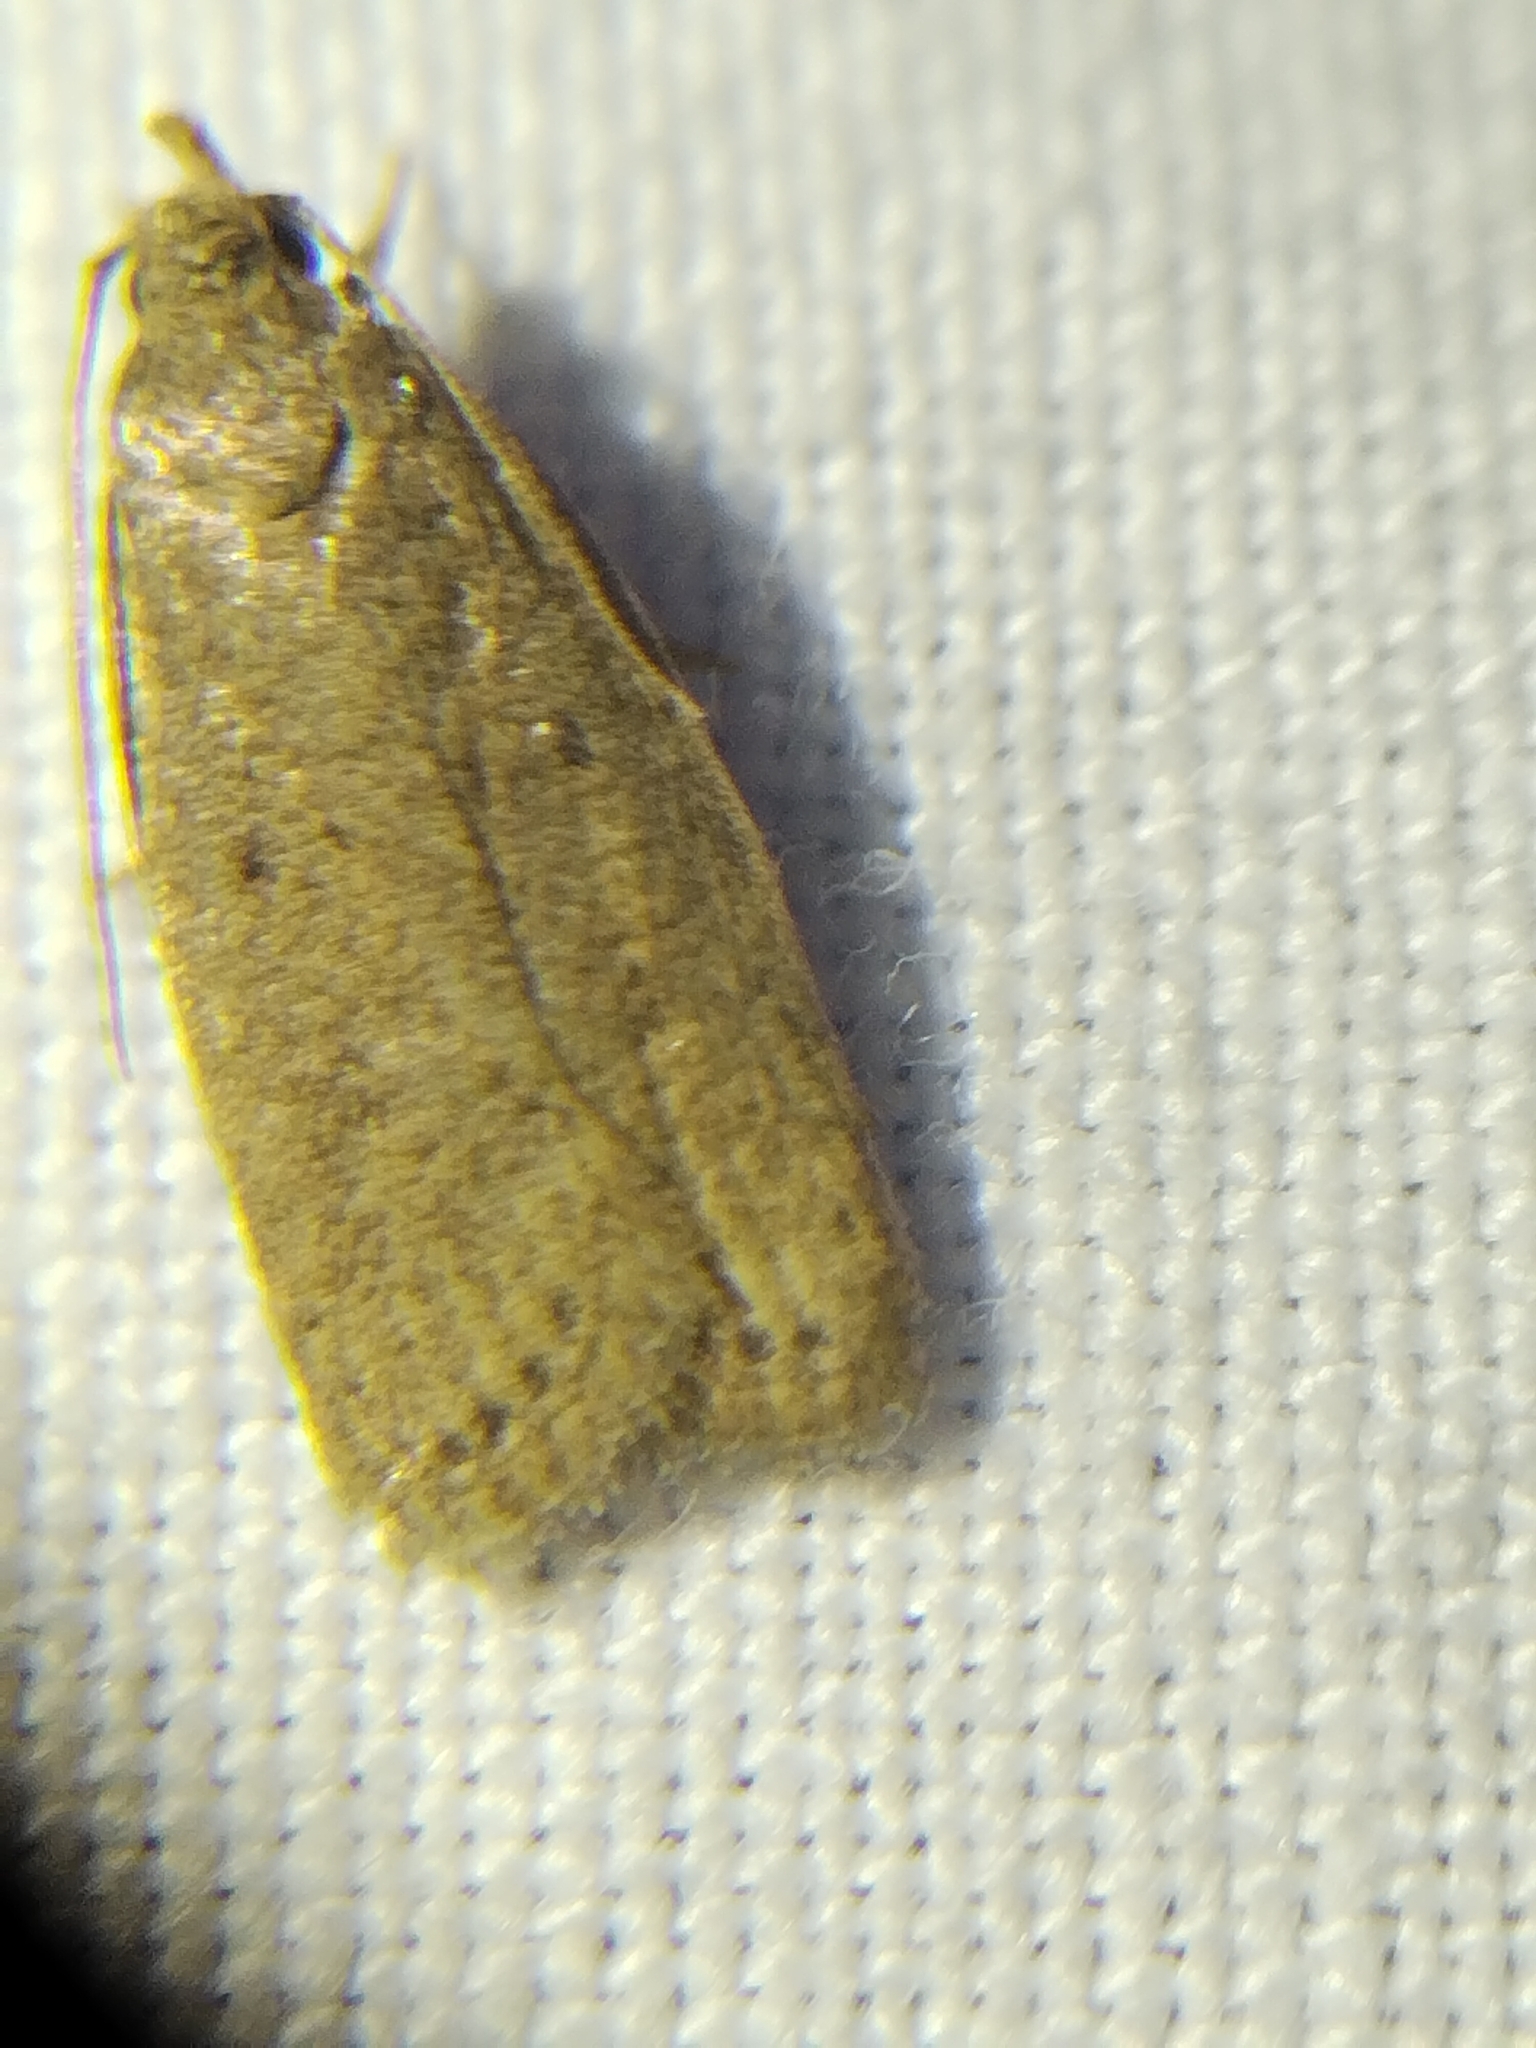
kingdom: Animalia
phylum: Arthropoda
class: Insecta
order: Lepidoptera
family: Autostichidae
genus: Autosticha
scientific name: Autosticha kyotensis
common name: Kyoto moth
